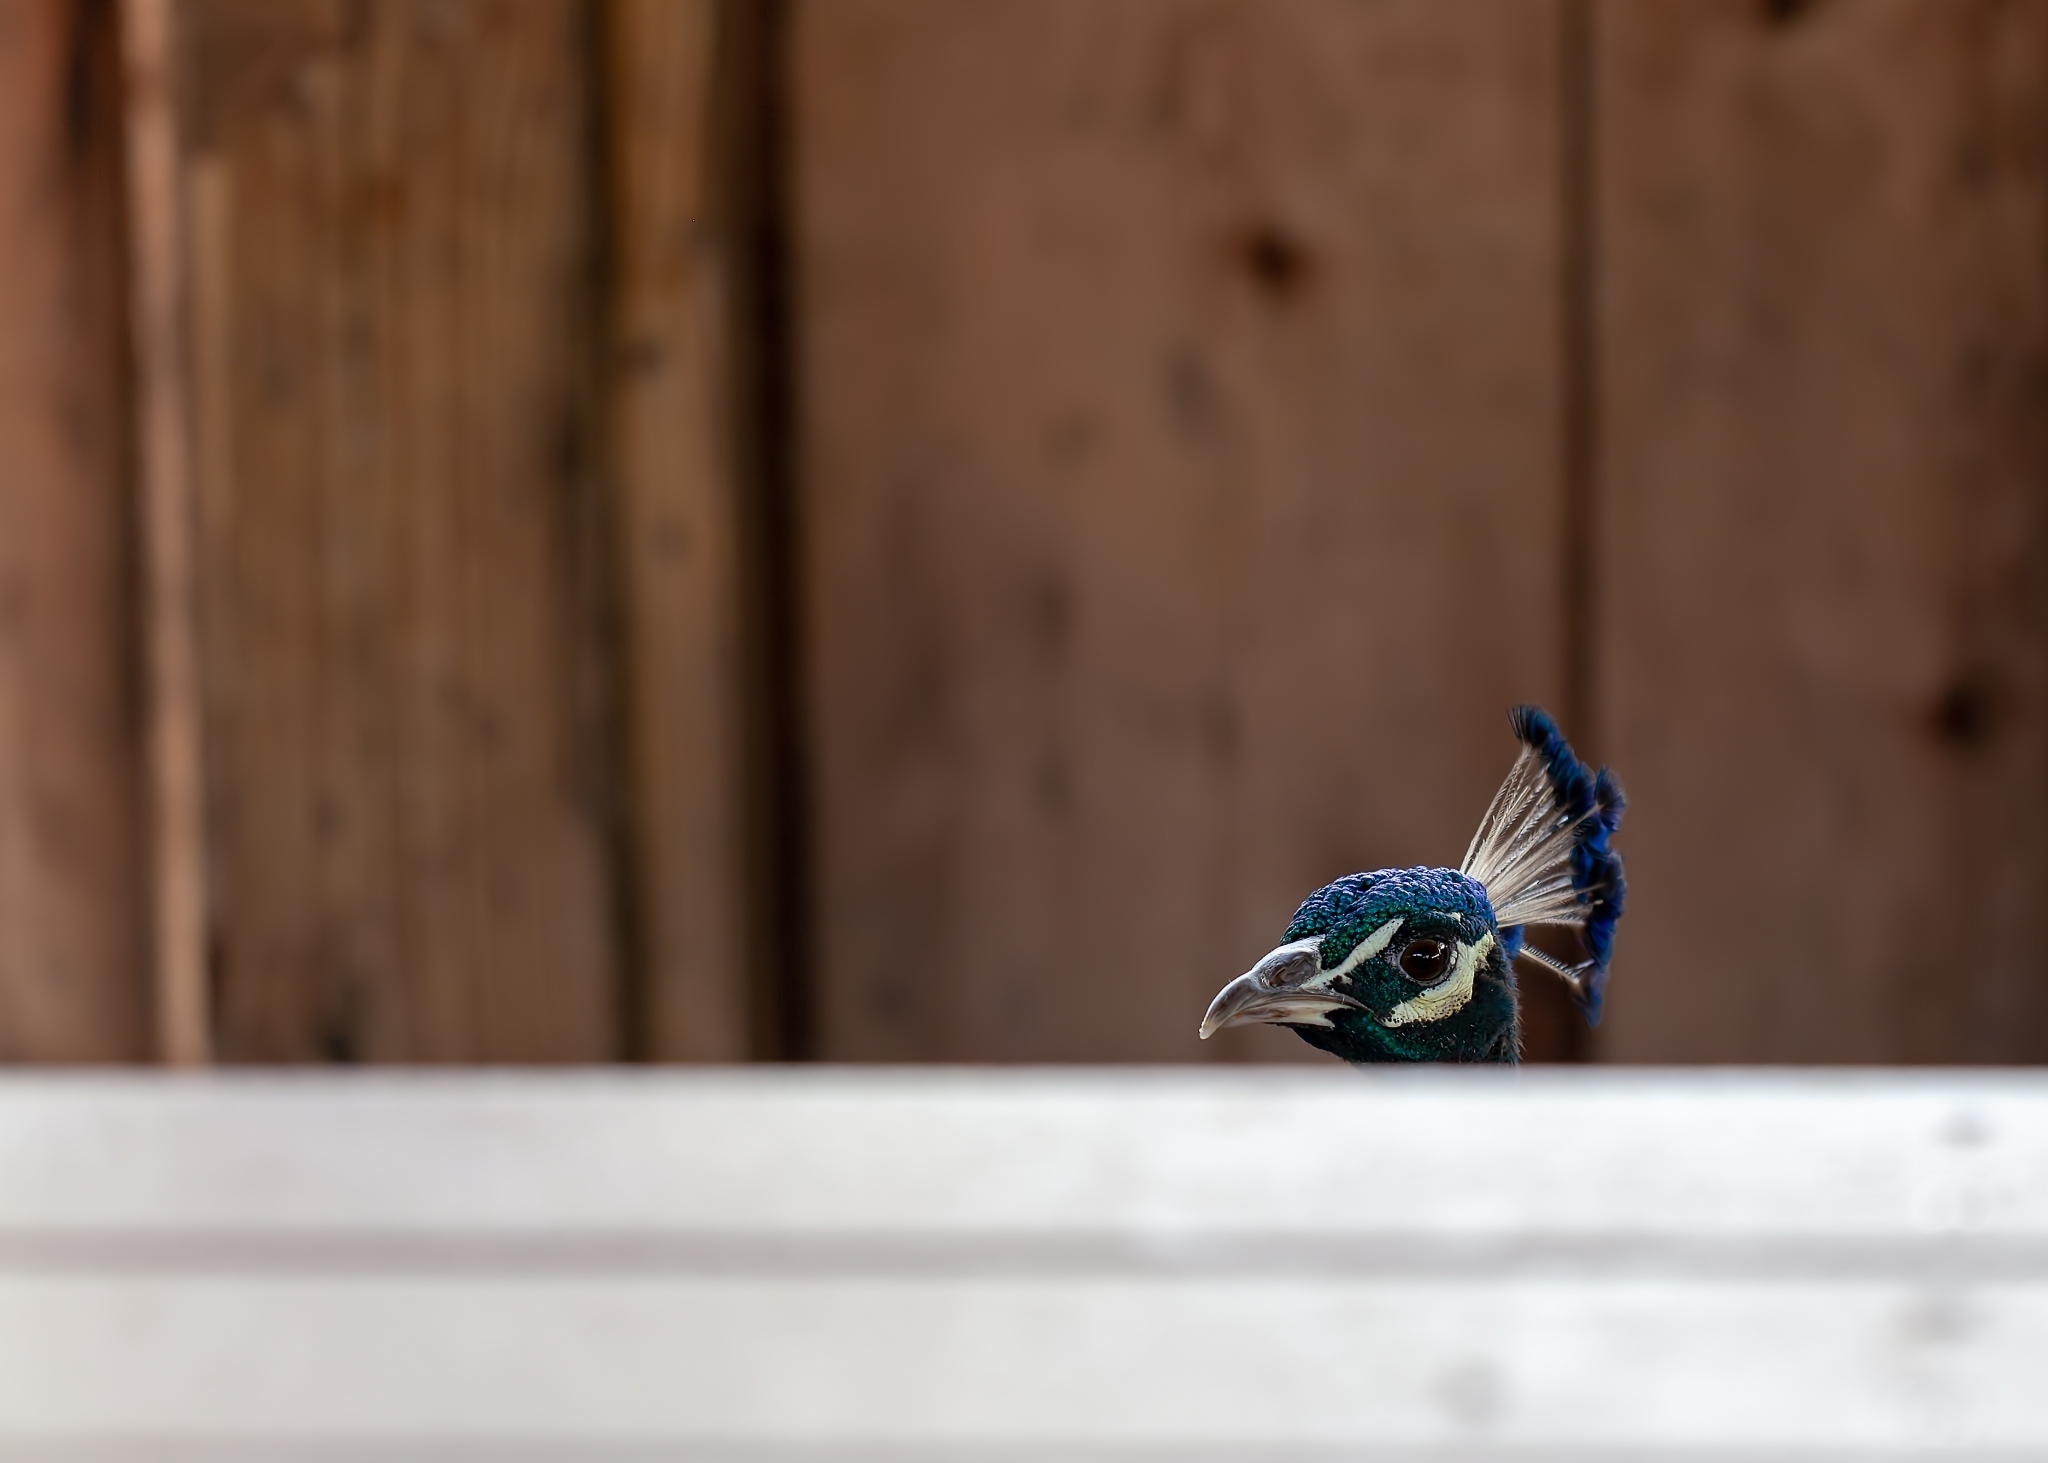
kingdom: Animalia
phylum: Chordata
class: Aves
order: Galliformes
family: Phasianidae
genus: Pavo
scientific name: Pavo cristatus
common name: Indian peafowl
